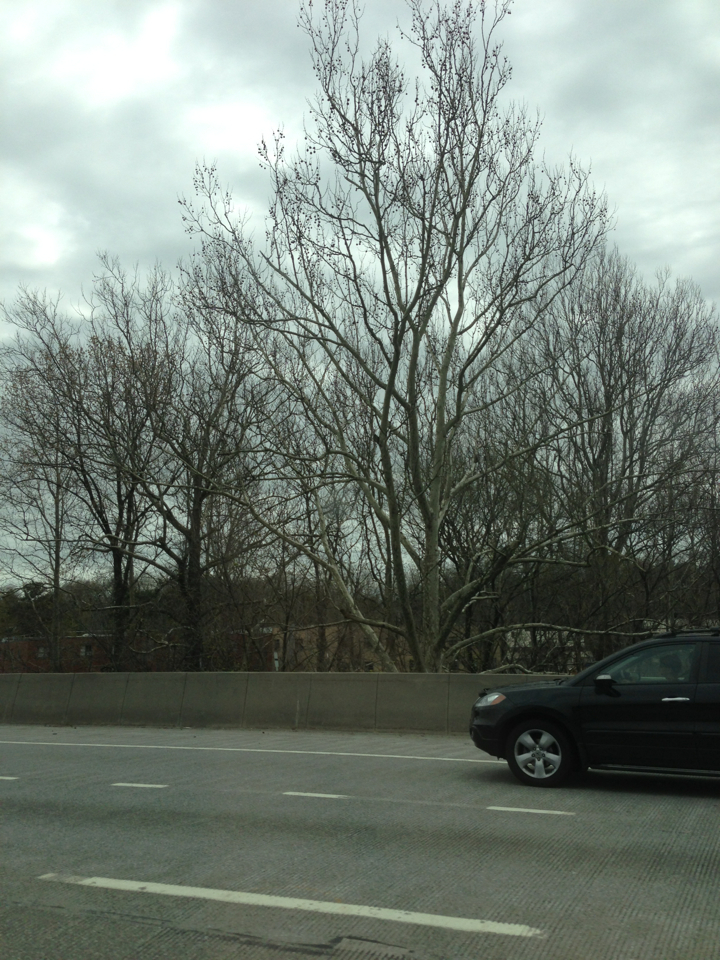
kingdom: Plantae
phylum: Tracheophyta
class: Magnoliopsida
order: Proteales
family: Platanaceae
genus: Platanus
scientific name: Platanus occidentalis
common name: American sycamore
